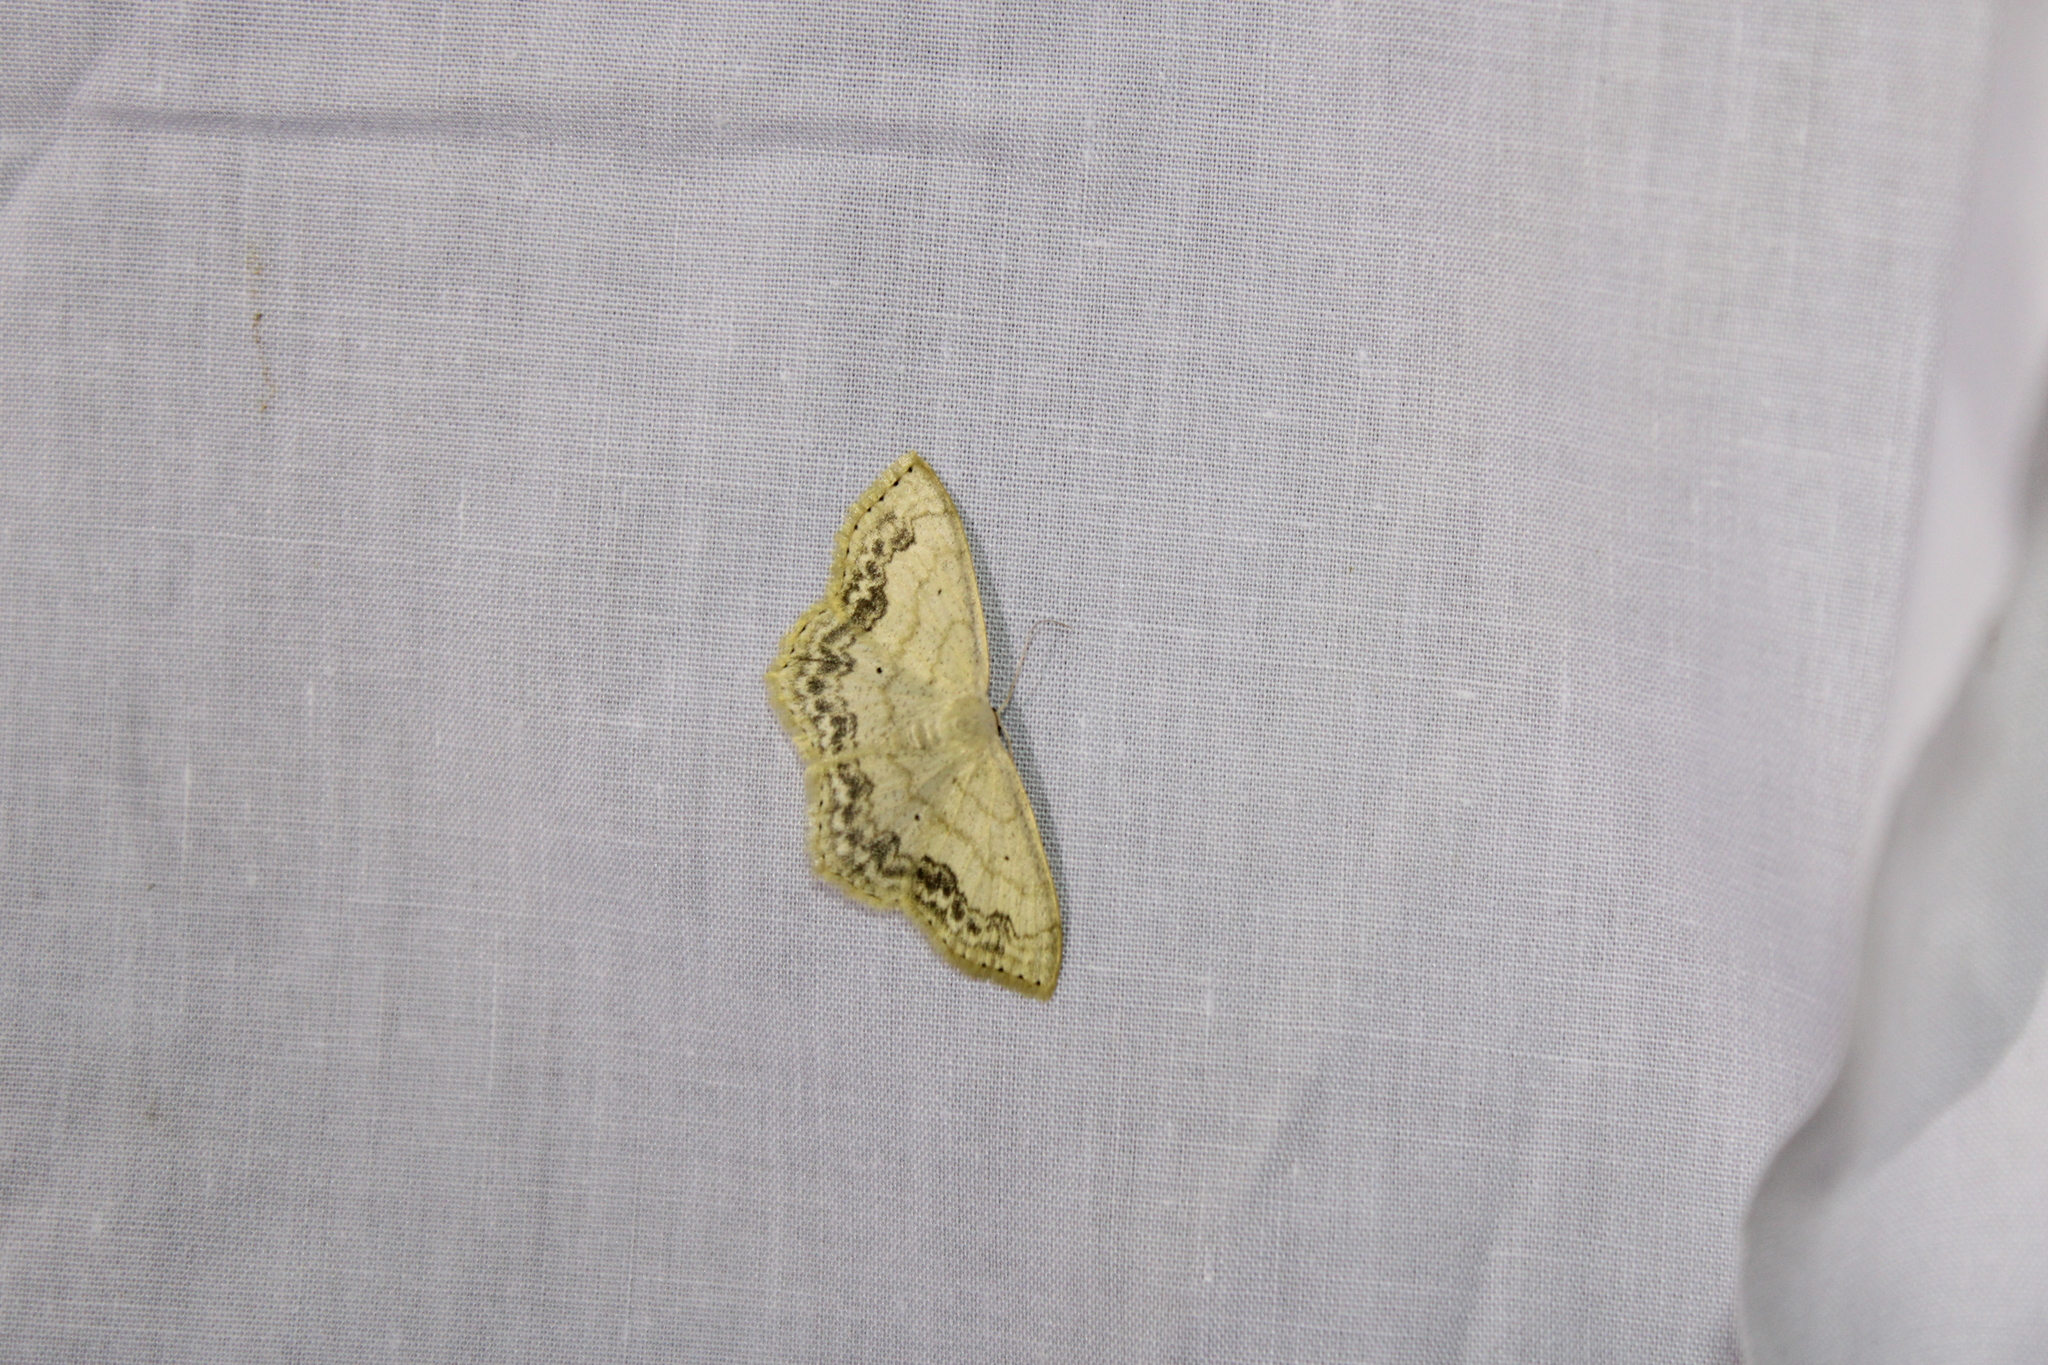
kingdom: Animalia
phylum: Arthropoda
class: Insecta
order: Lepidoptera
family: Geometridae
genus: Scopula
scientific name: Scopula limboundata
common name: Large lace border
